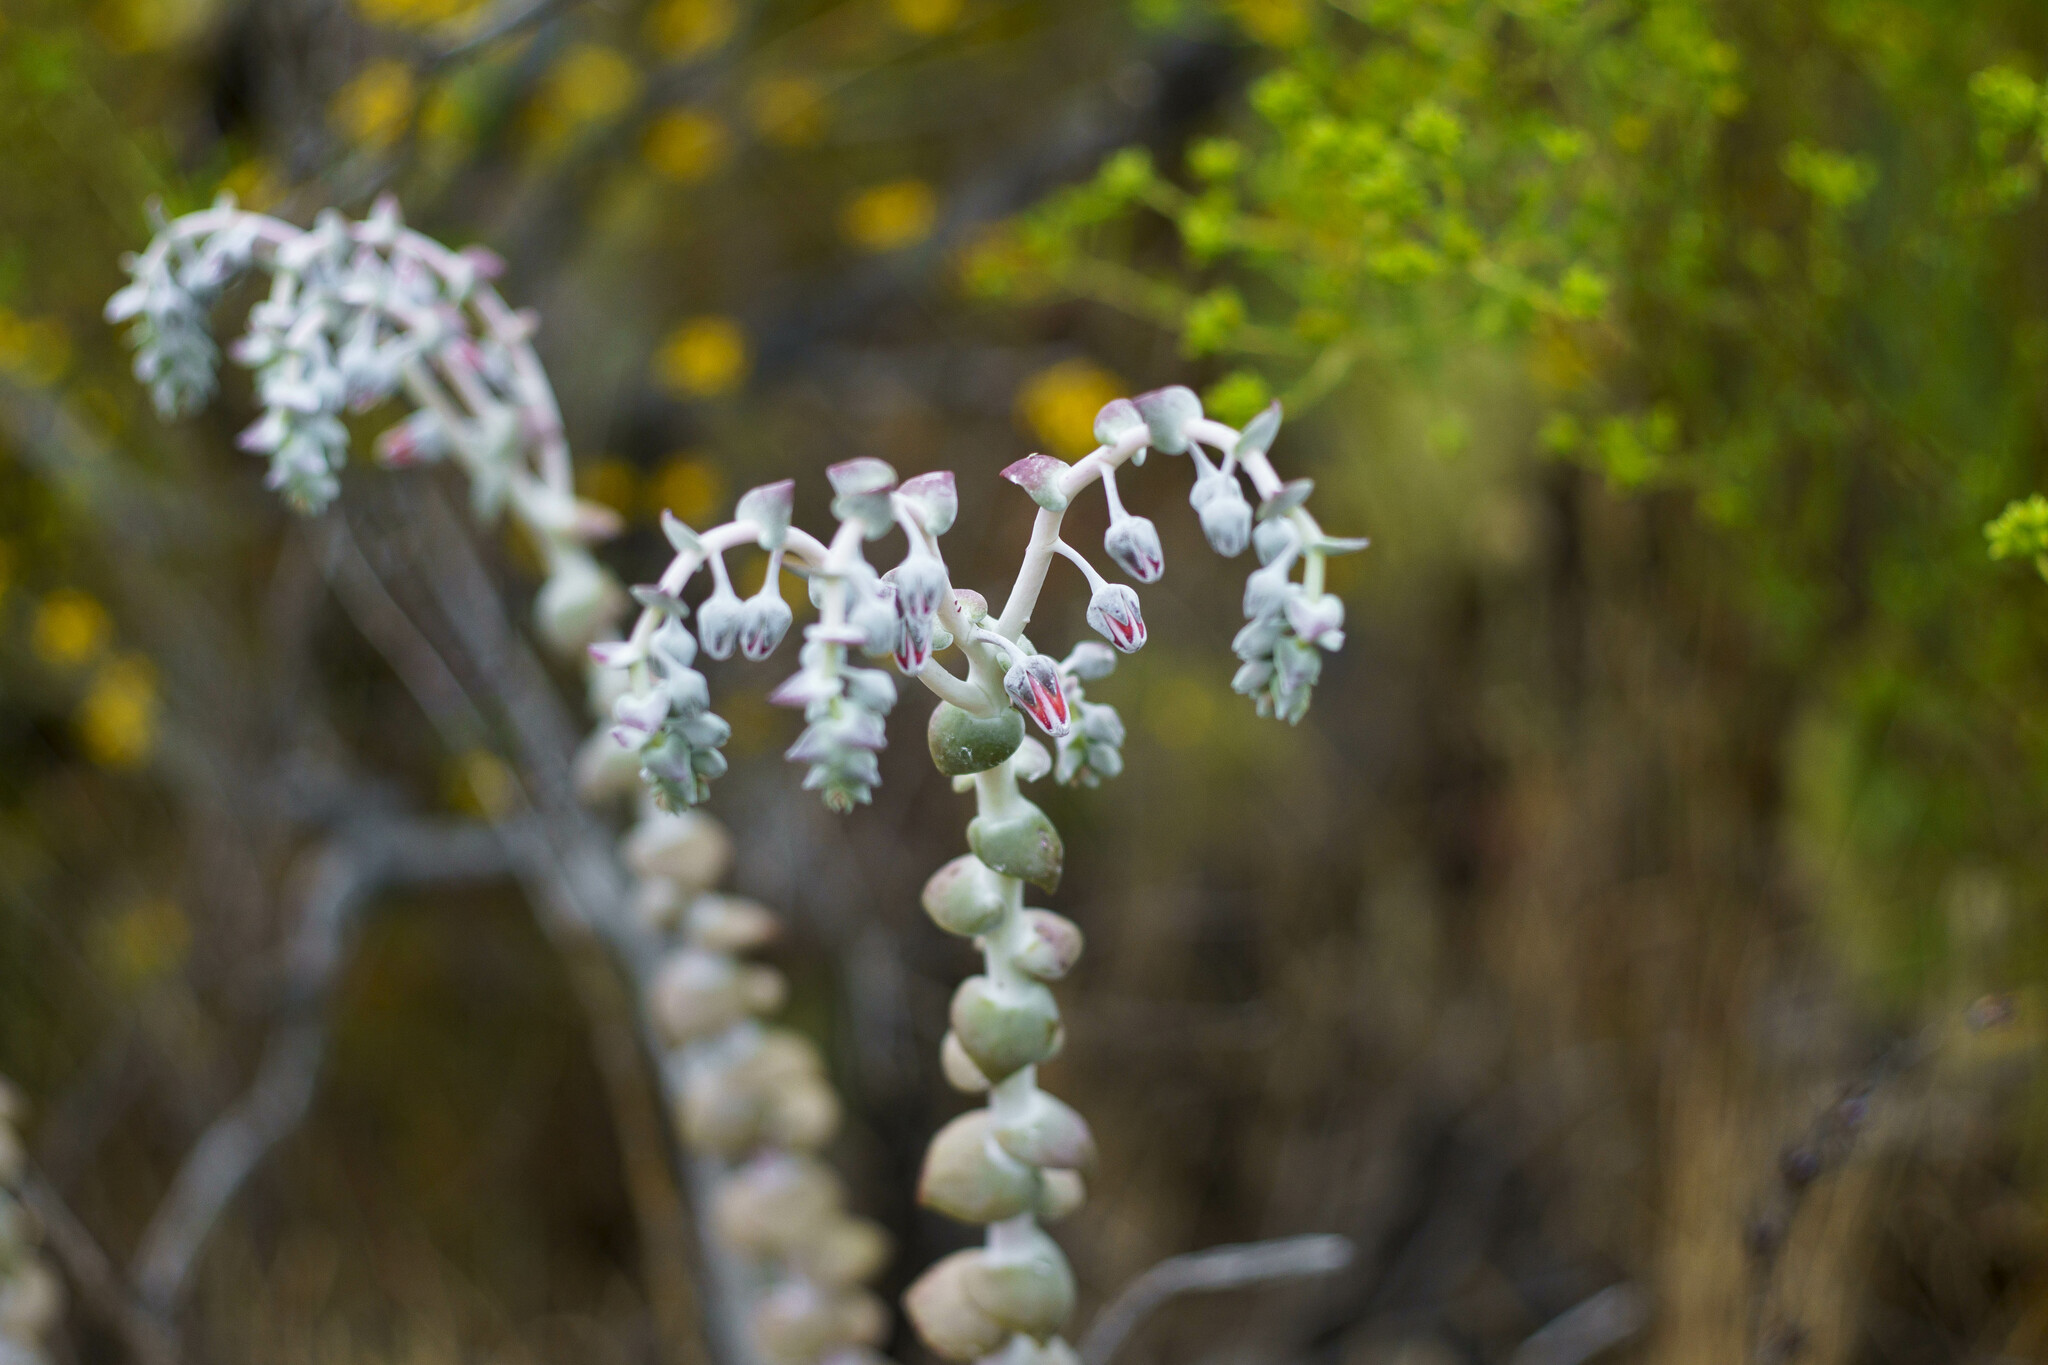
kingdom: Plantae
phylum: Tracheophyta
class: Magnoliopsida
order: Saxifragales
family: Crassulaceae
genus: Dudleya
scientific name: Dudleya pulverulenta
